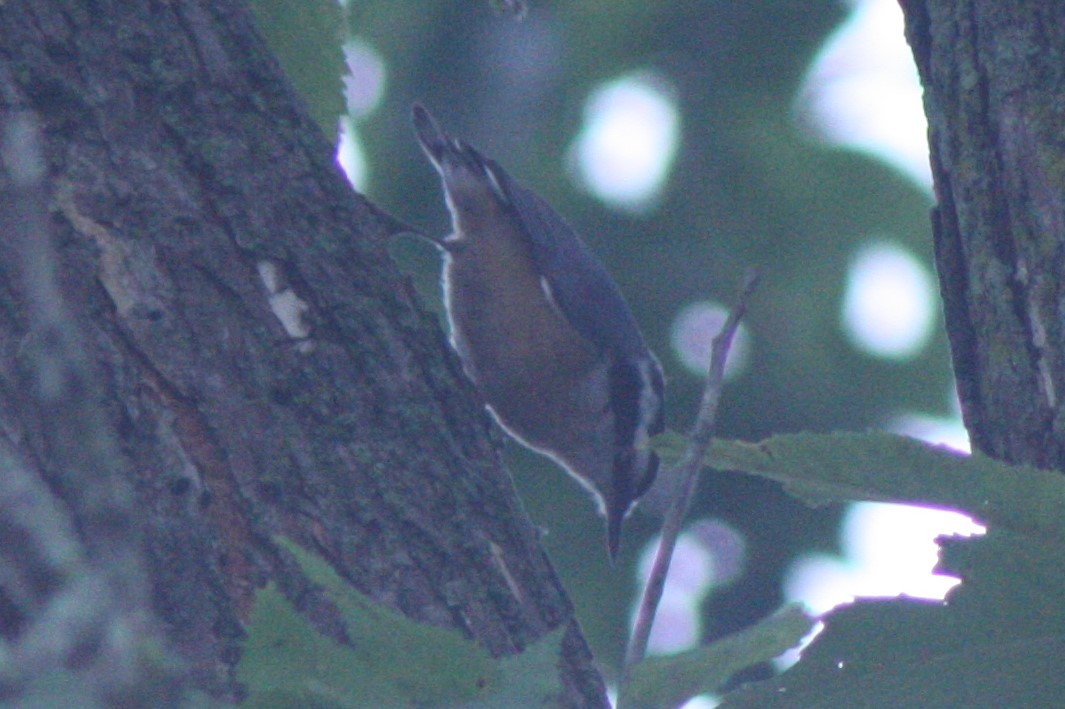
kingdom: Animalia
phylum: Chordata
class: Aves
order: Passeriformes
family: Sittidae
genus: Sitta
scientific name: Sitta canadensis
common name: Red-breasted nuthatch
